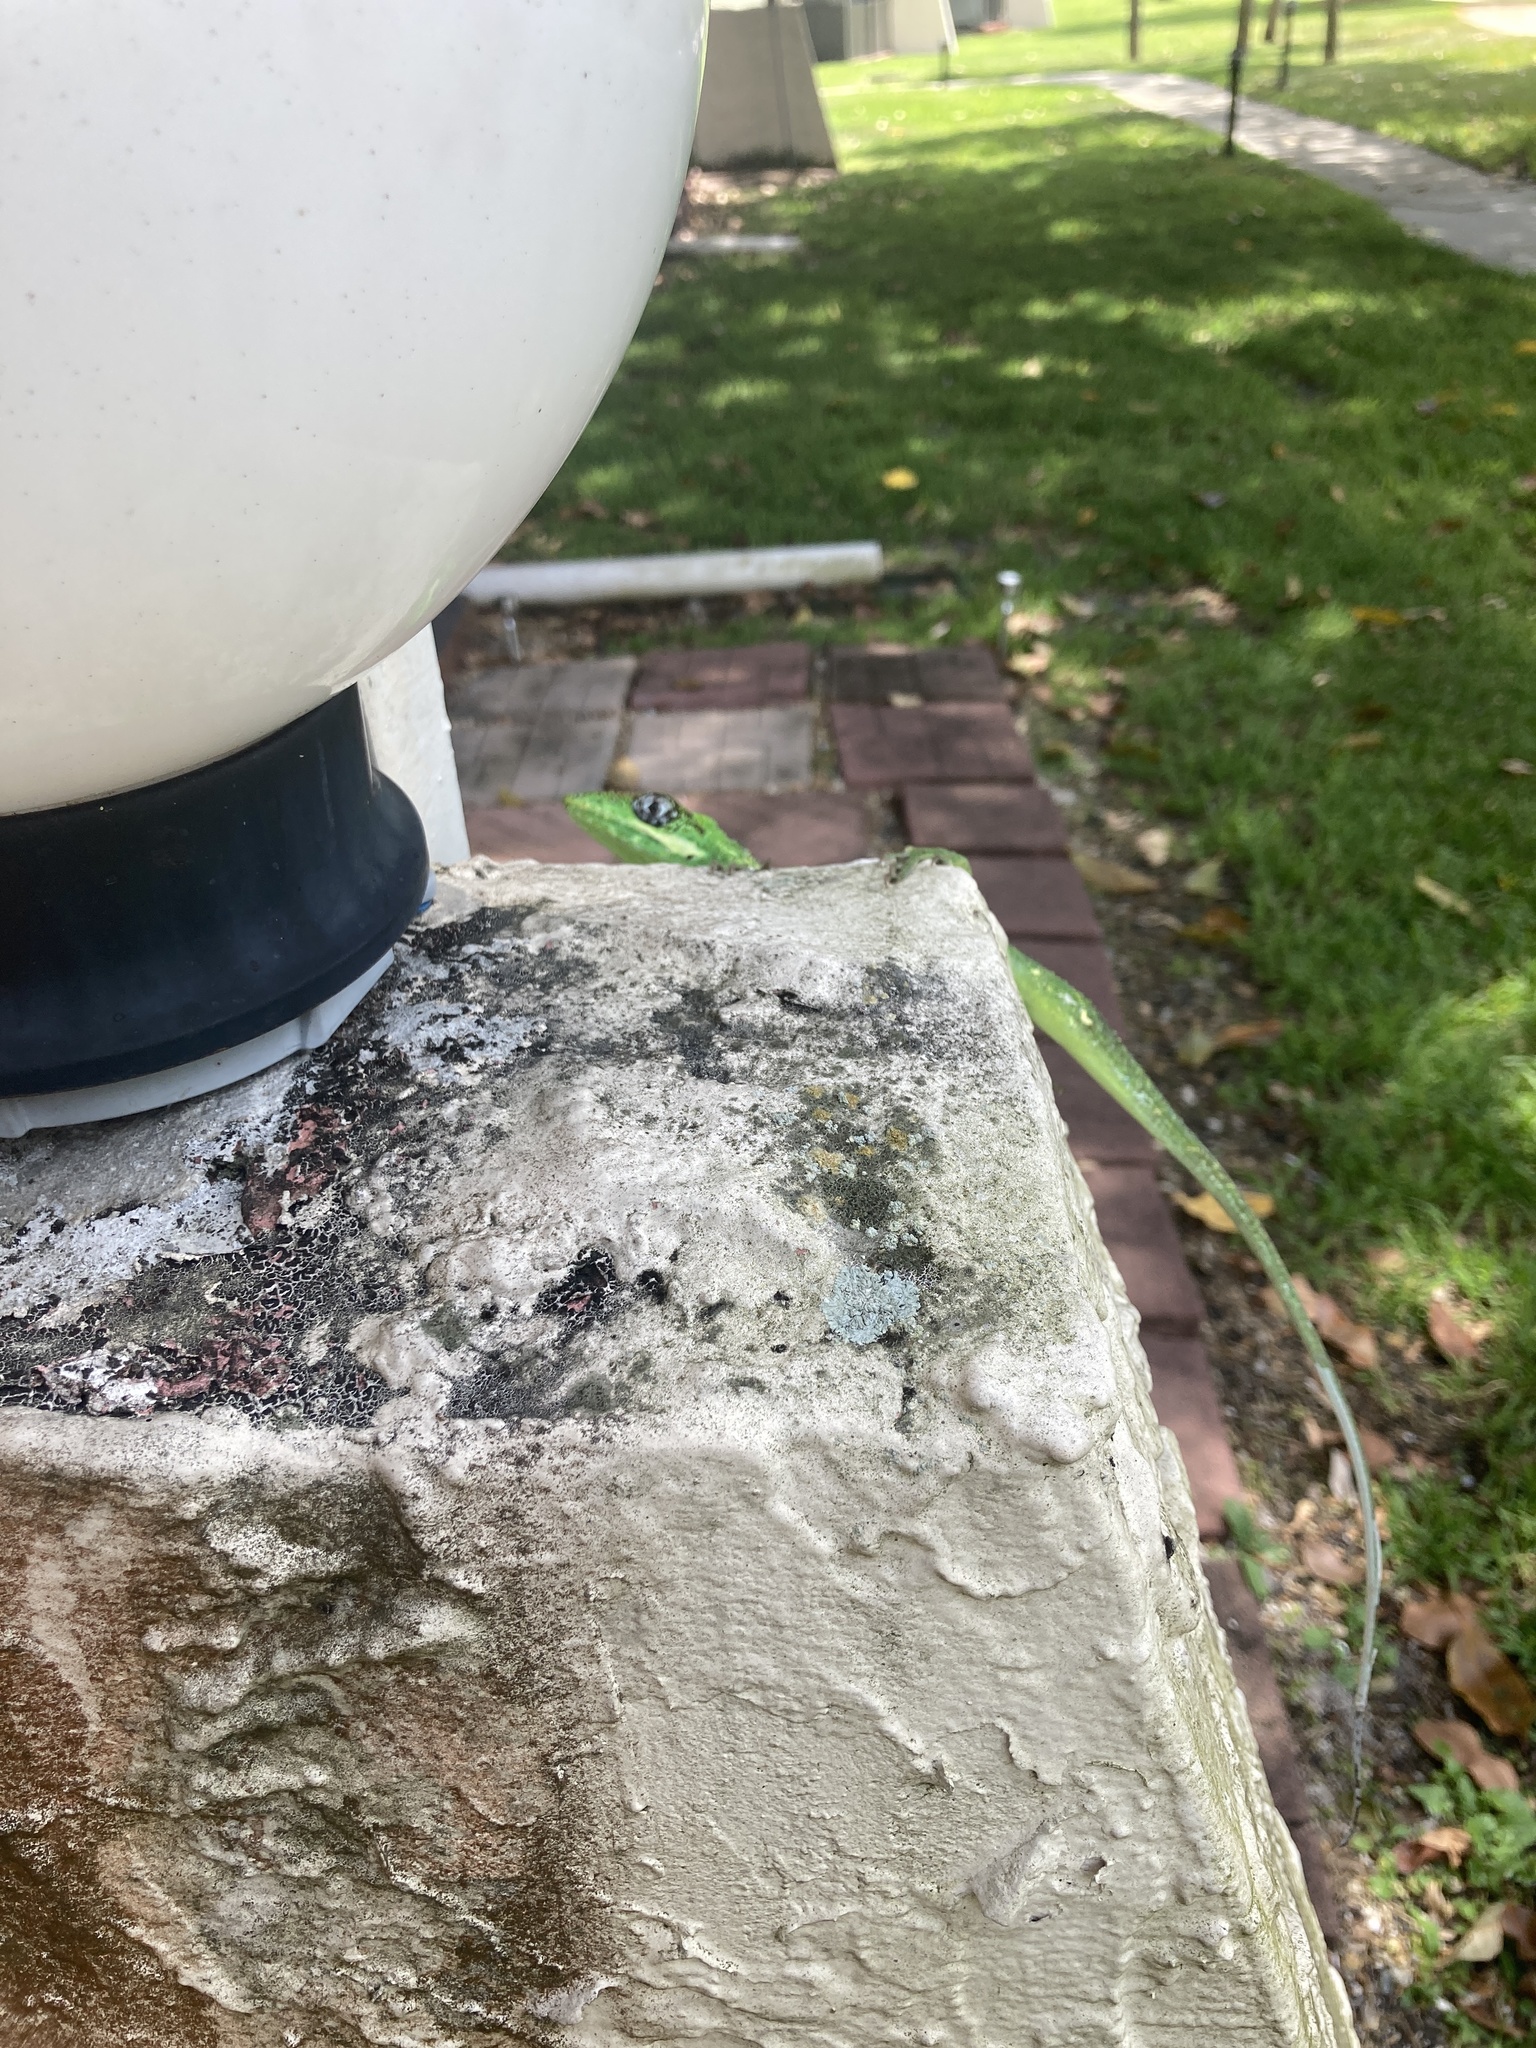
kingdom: Animalia
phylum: Chordata
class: Squamata
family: Dactyloidae
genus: Anolis
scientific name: Anolis equestris
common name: Knight anole
